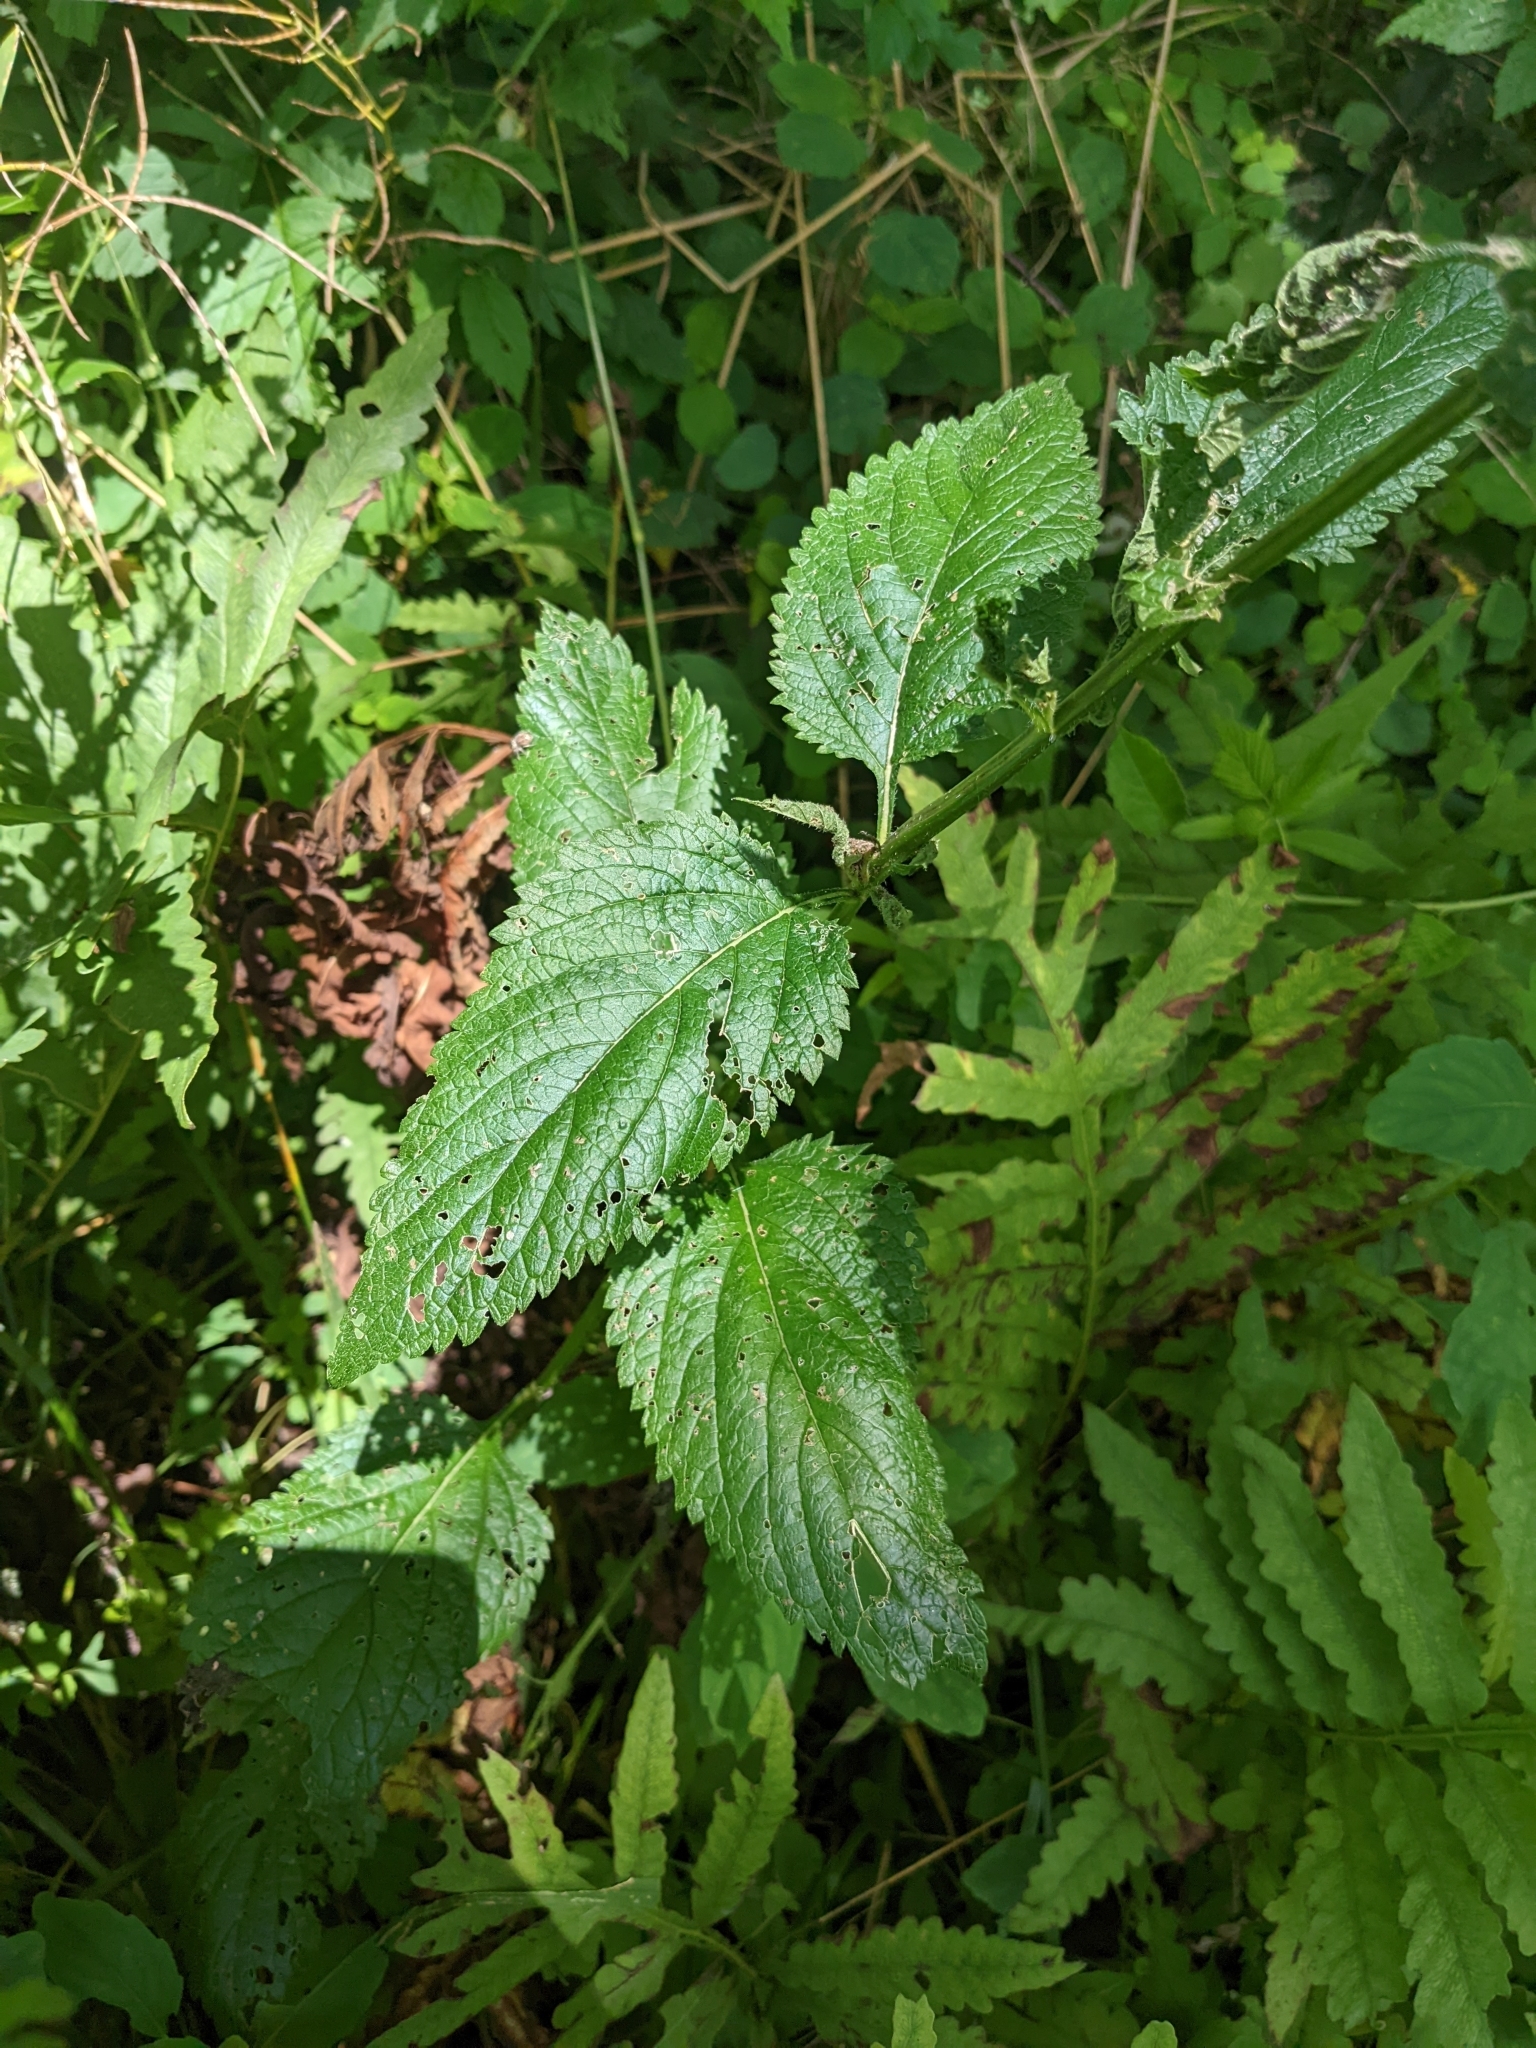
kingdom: Plantae
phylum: Tracheophyta
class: Magnoliopsida
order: Lamiales
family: Verbenaceae
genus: Verbena
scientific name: Verbena urticifolia
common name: Nettle-leaved vervain
